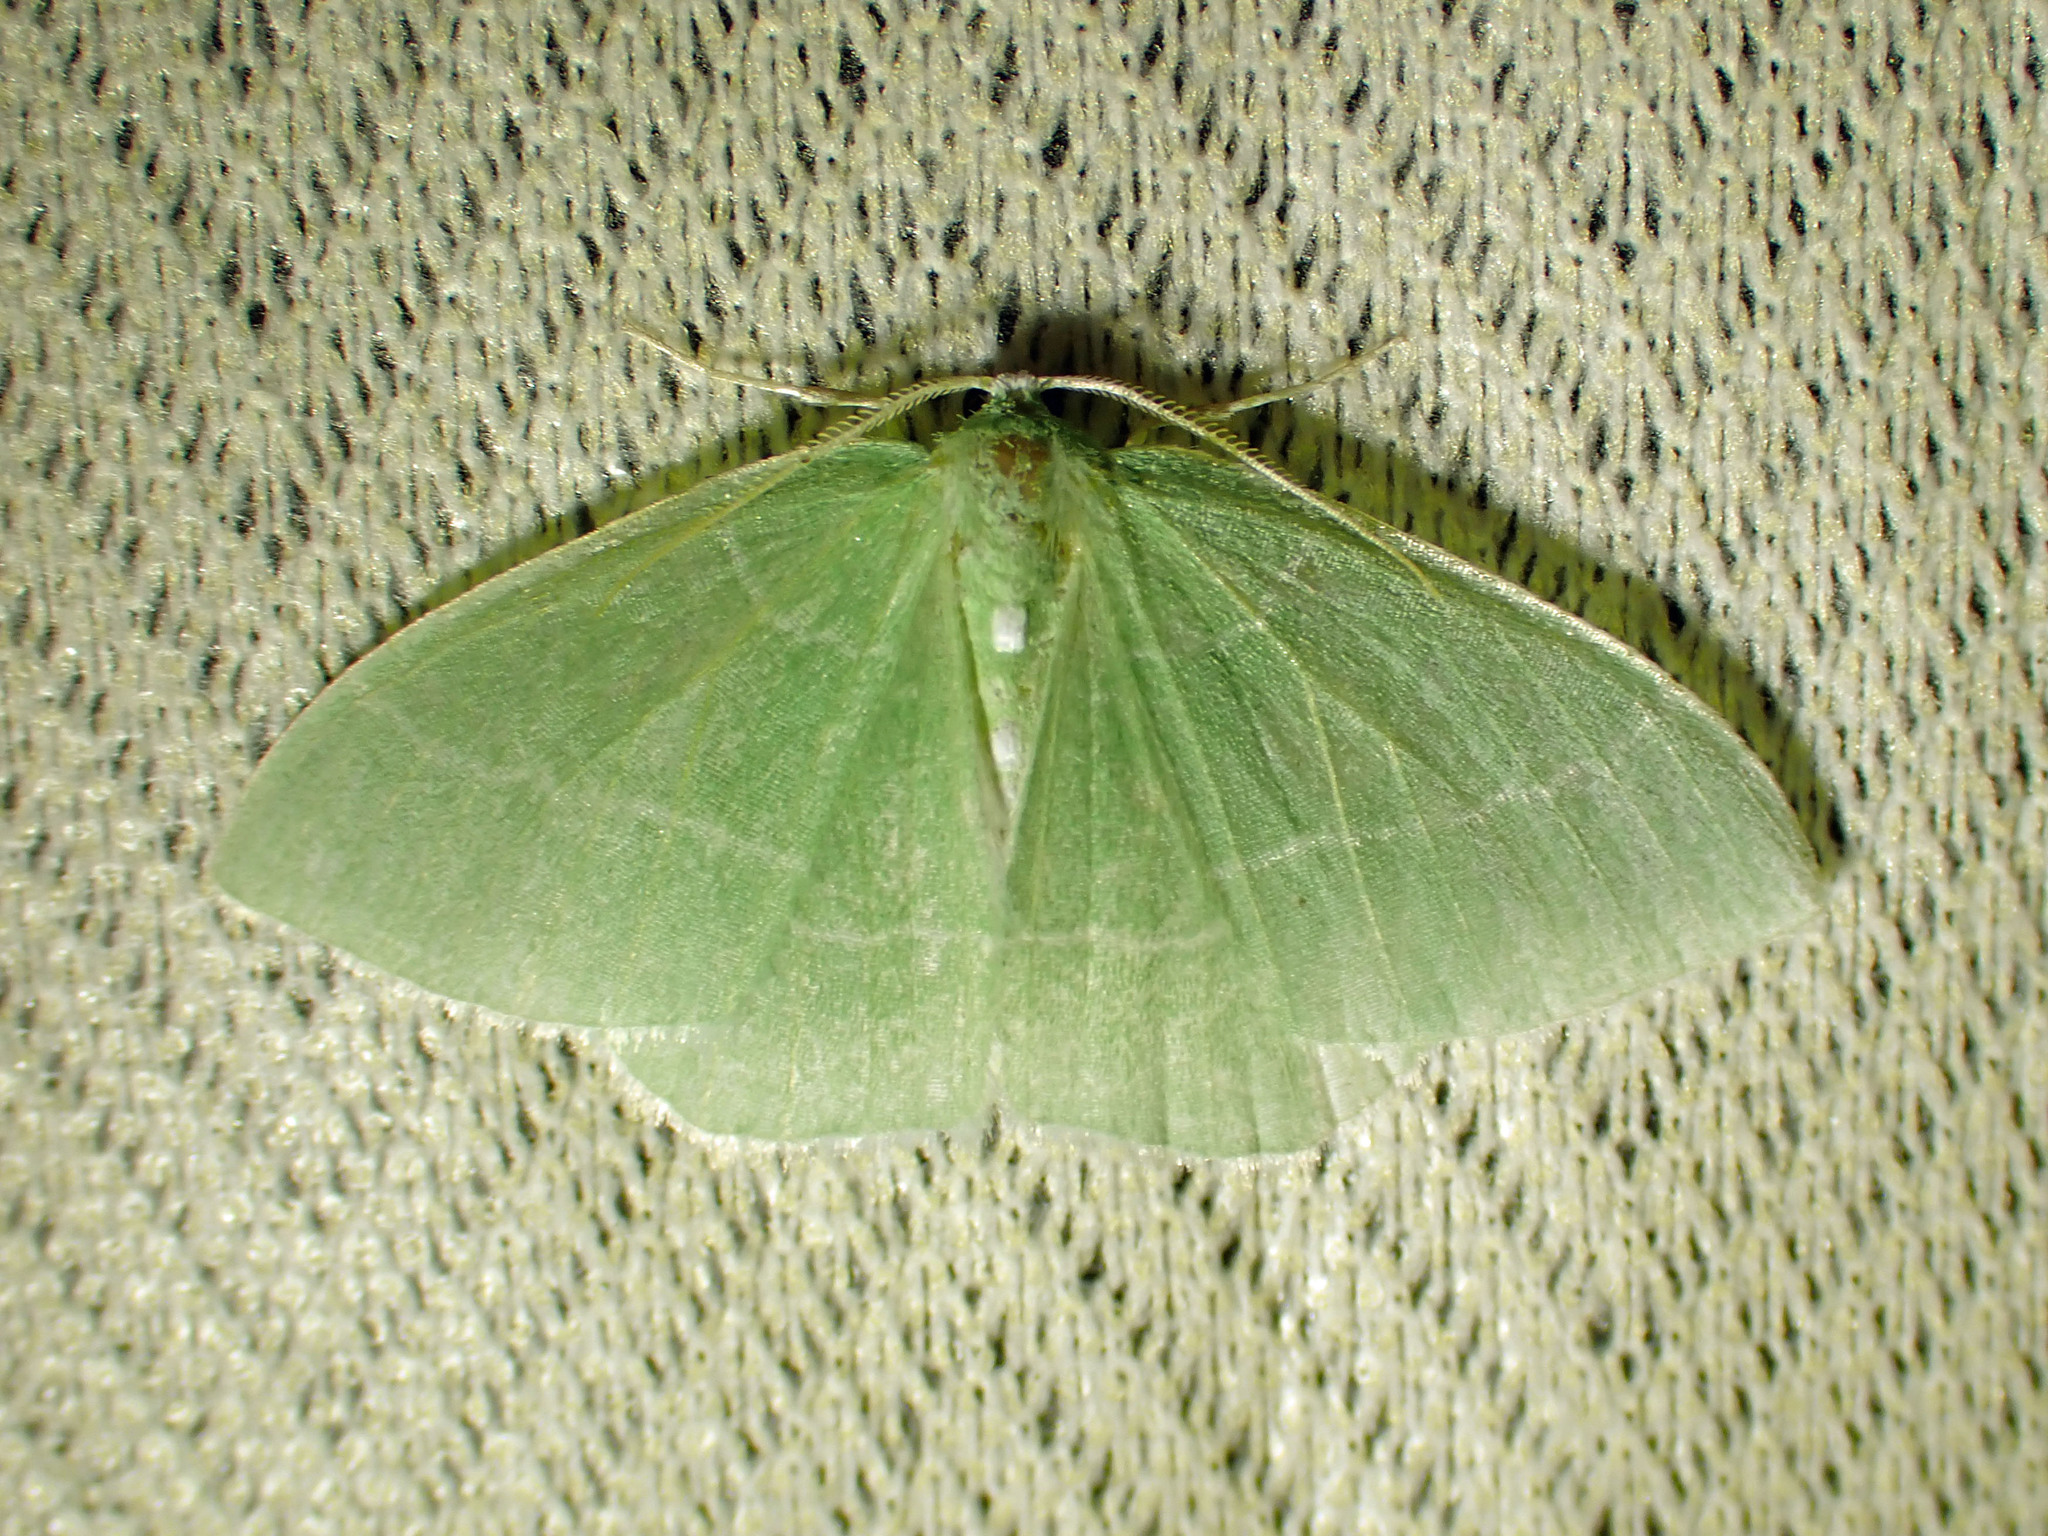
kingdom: Animalia
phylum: Arthropoda
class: Insecta
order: Lepidoptera
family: Geometridae
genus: Nemoria
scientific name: Nemoria mimosaria
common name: White-fringed emerald
